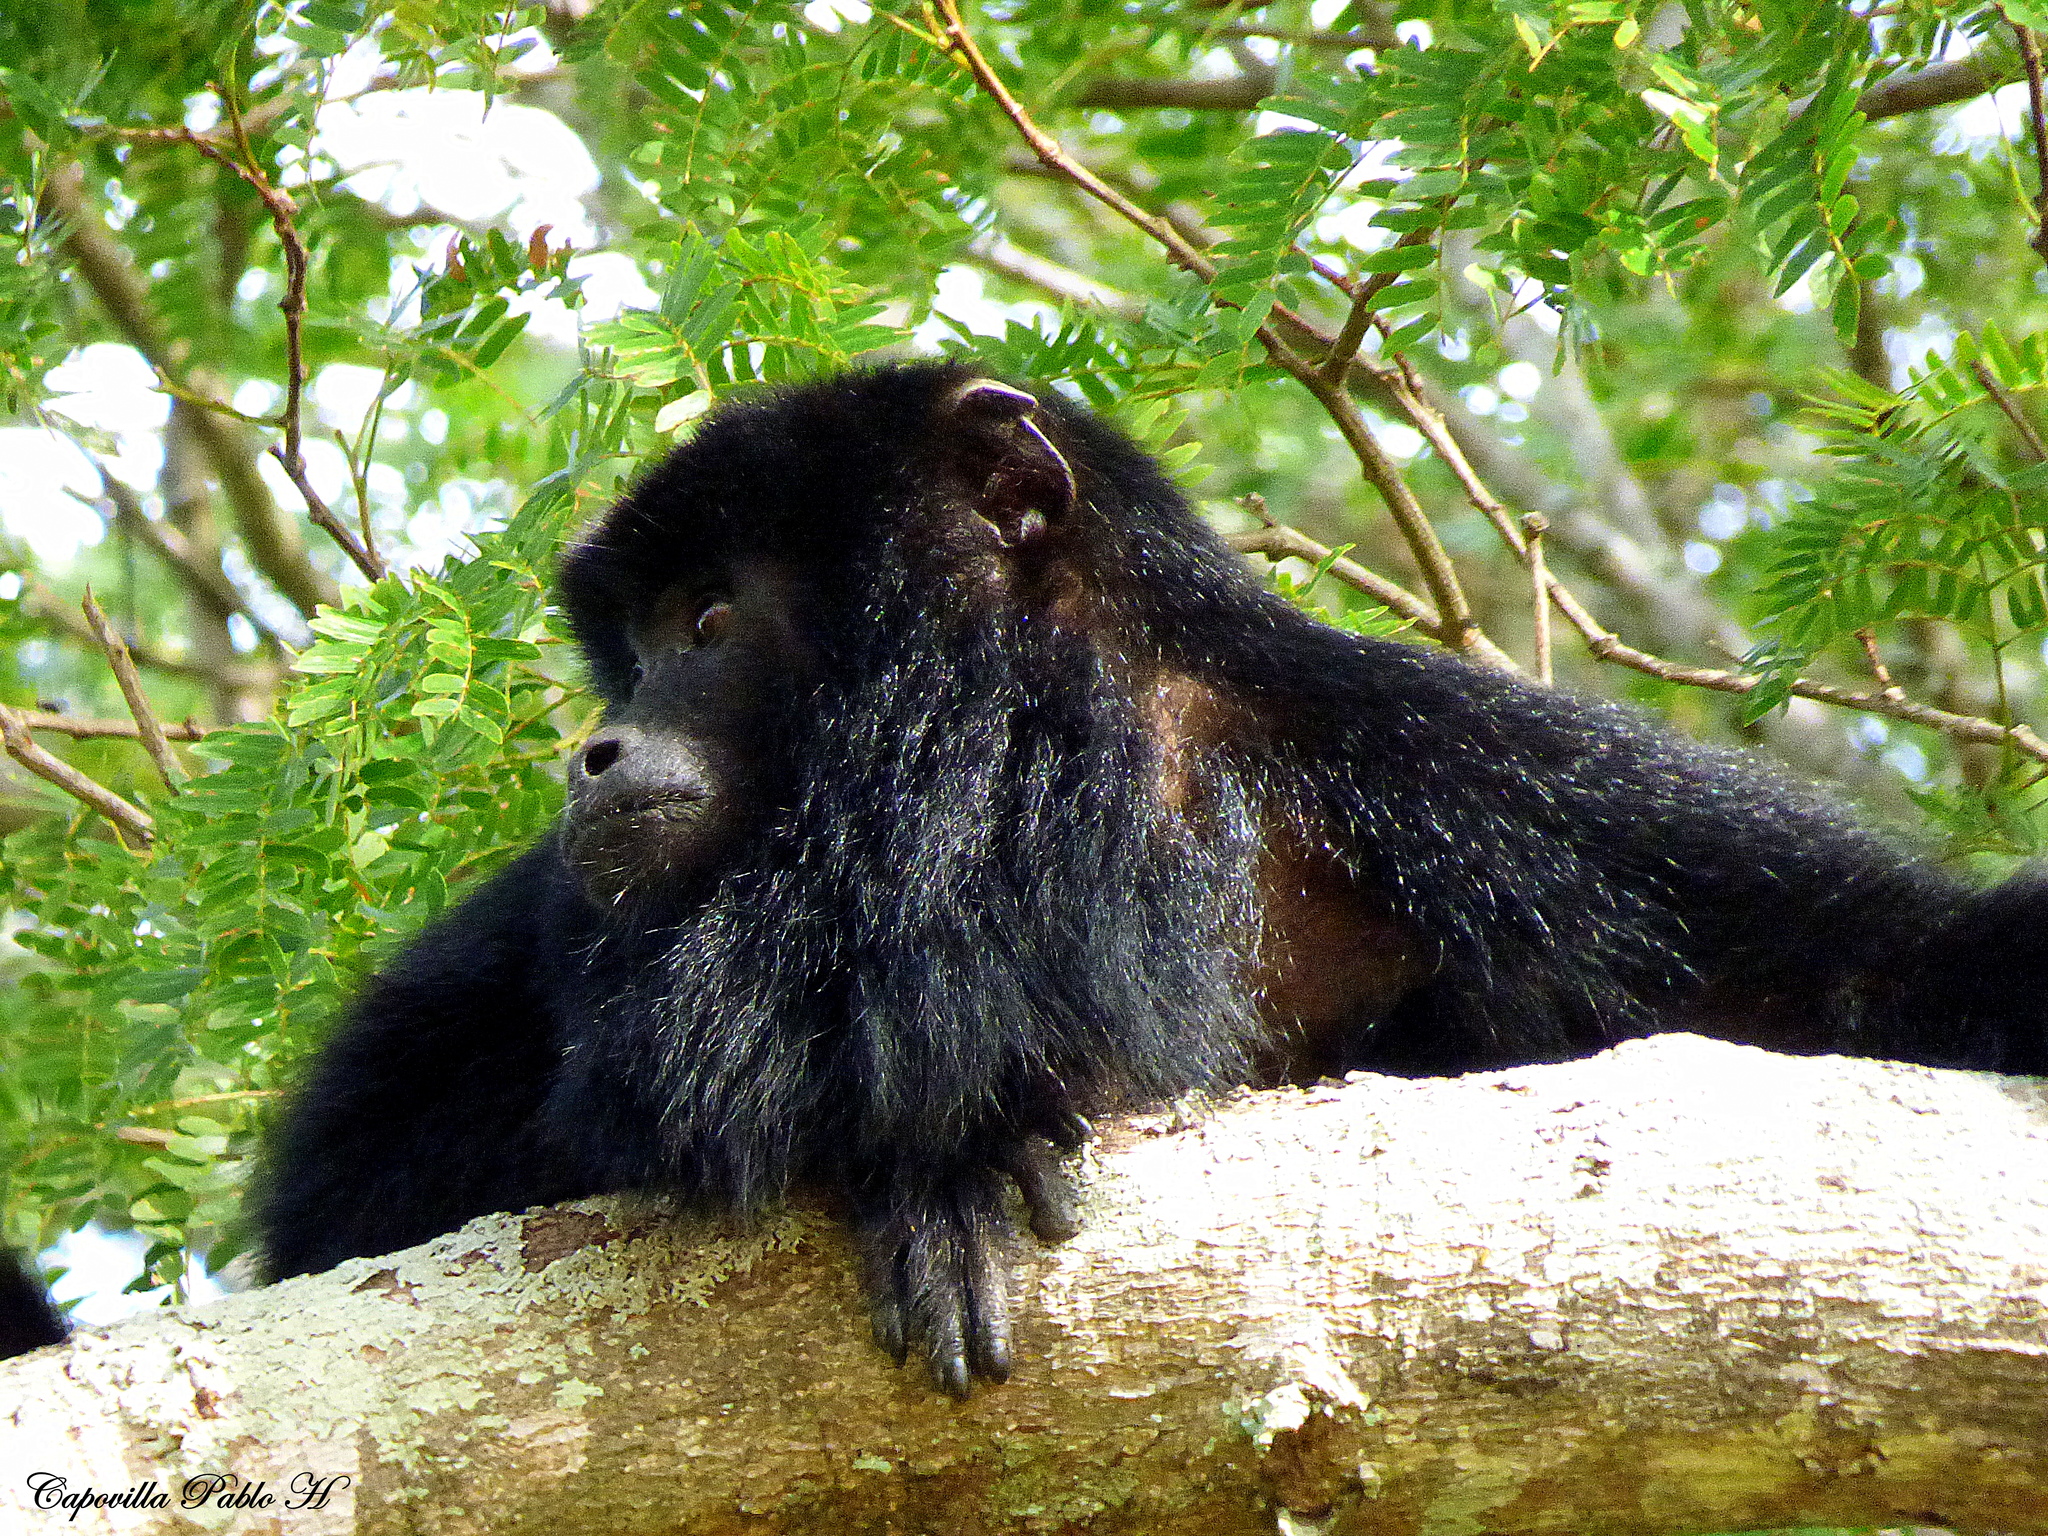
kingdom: Animalia
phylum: Chordata
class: Mammalia
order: Primates
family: Atelidae
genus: Alouatta
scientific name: Alouatta caraya
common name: Black howler
